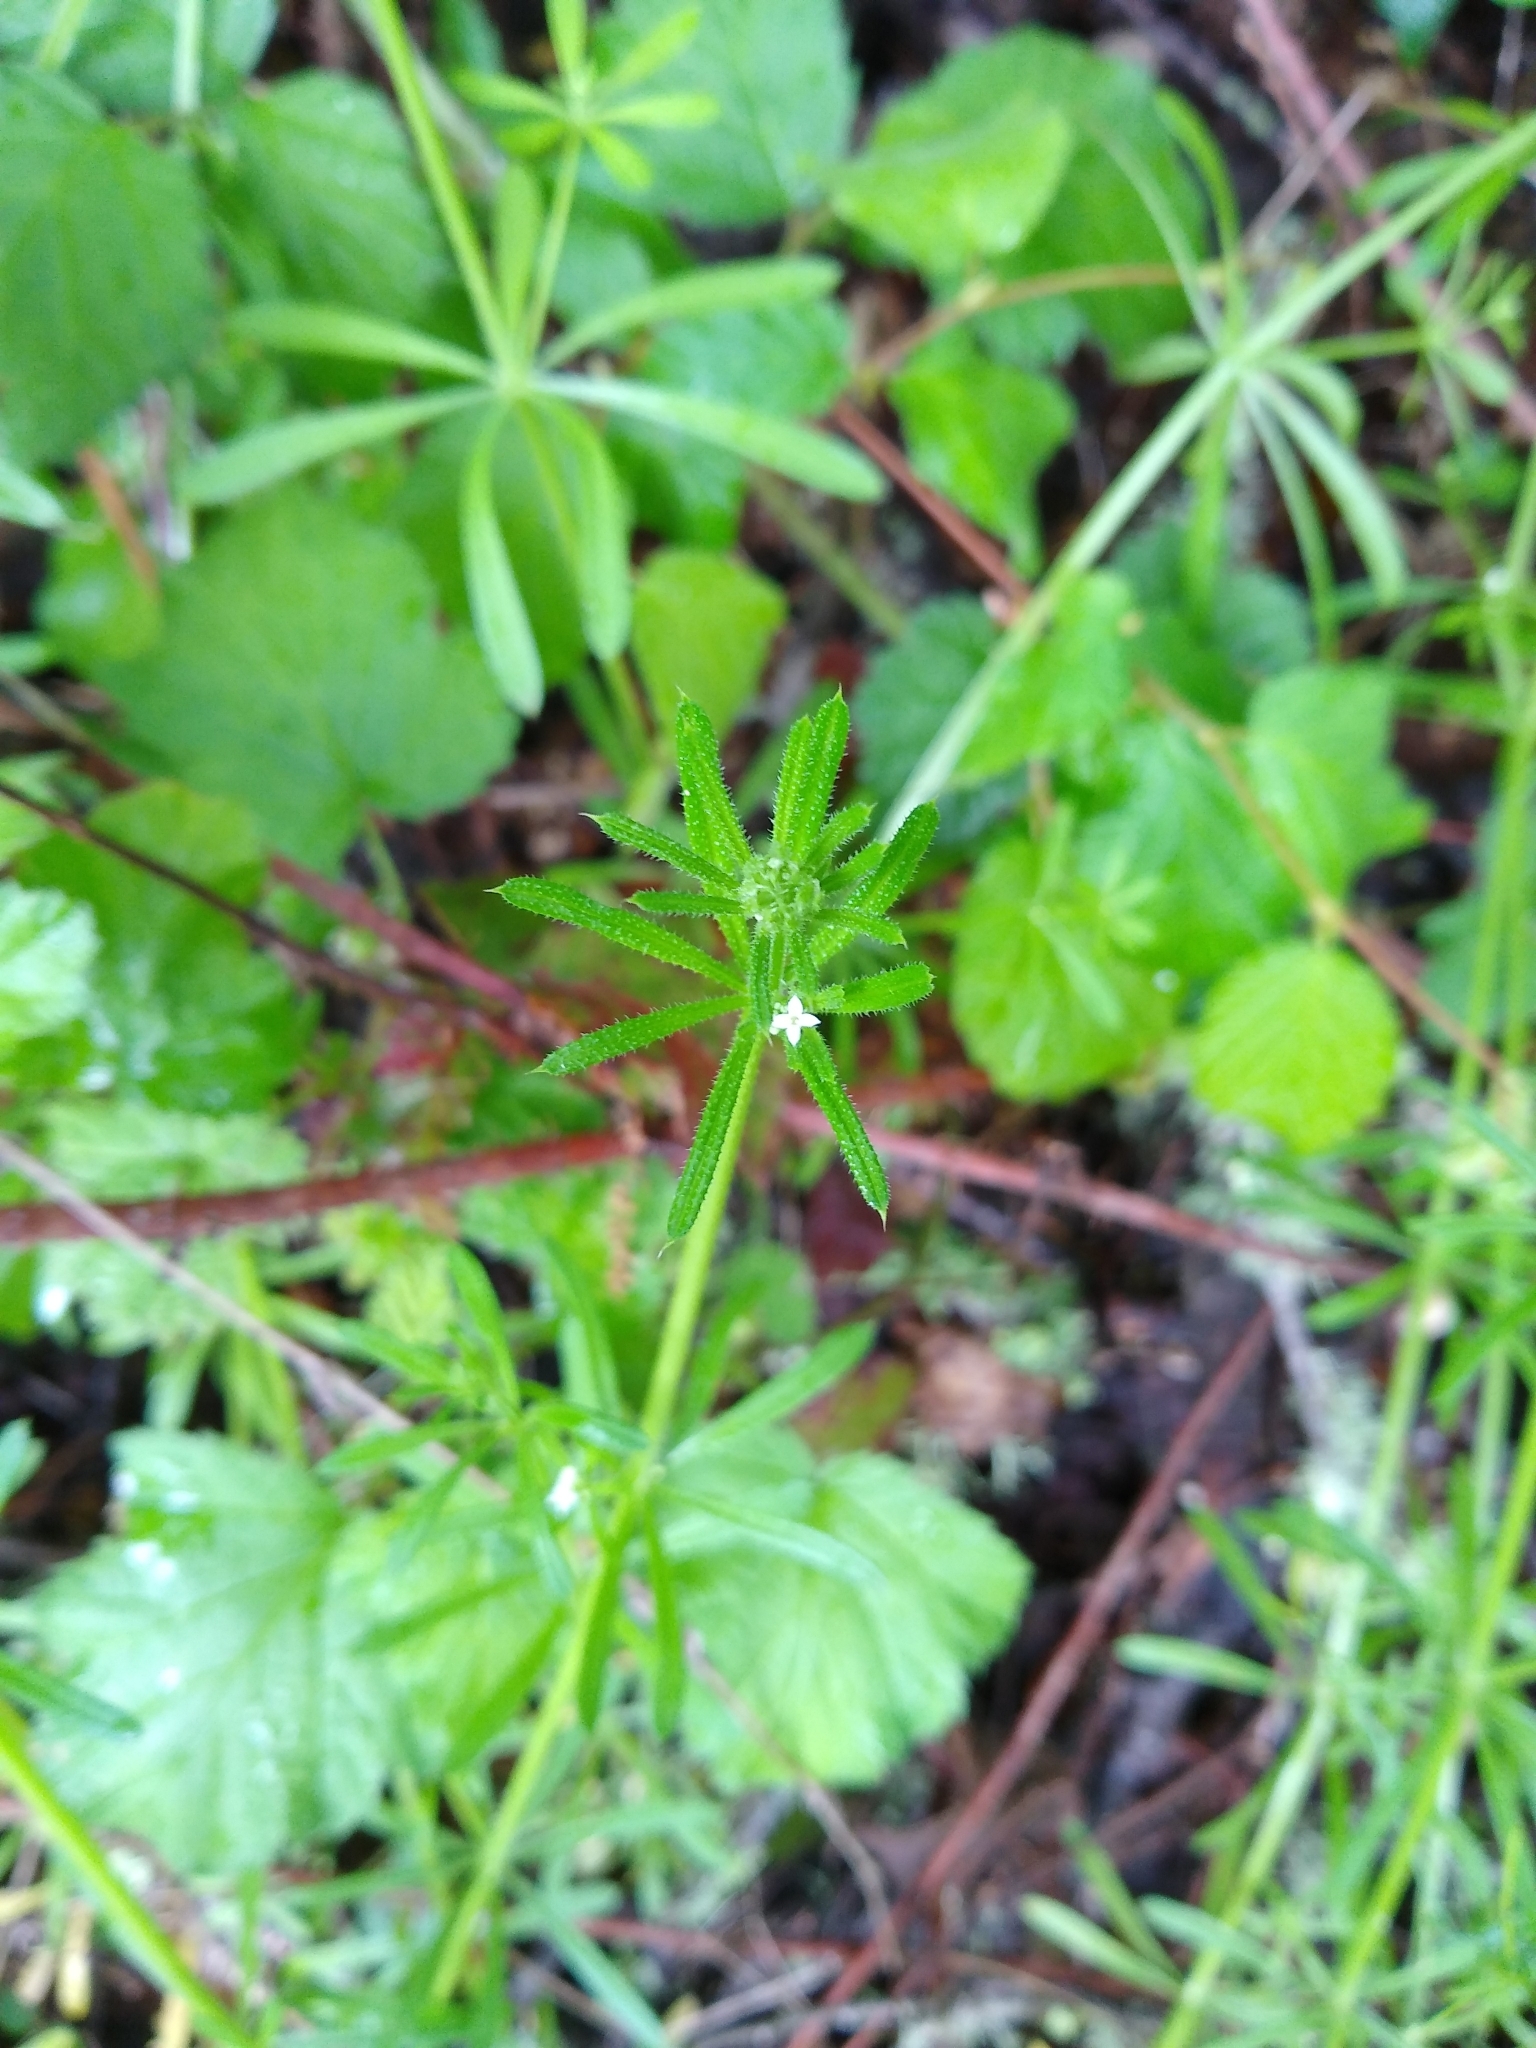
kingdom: Plantae
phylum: Tracheophyta
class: Magnoliopsida
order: Gentianales
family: Rubiaceae
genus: Galium
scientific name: Galium aparine
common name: Cleavers
